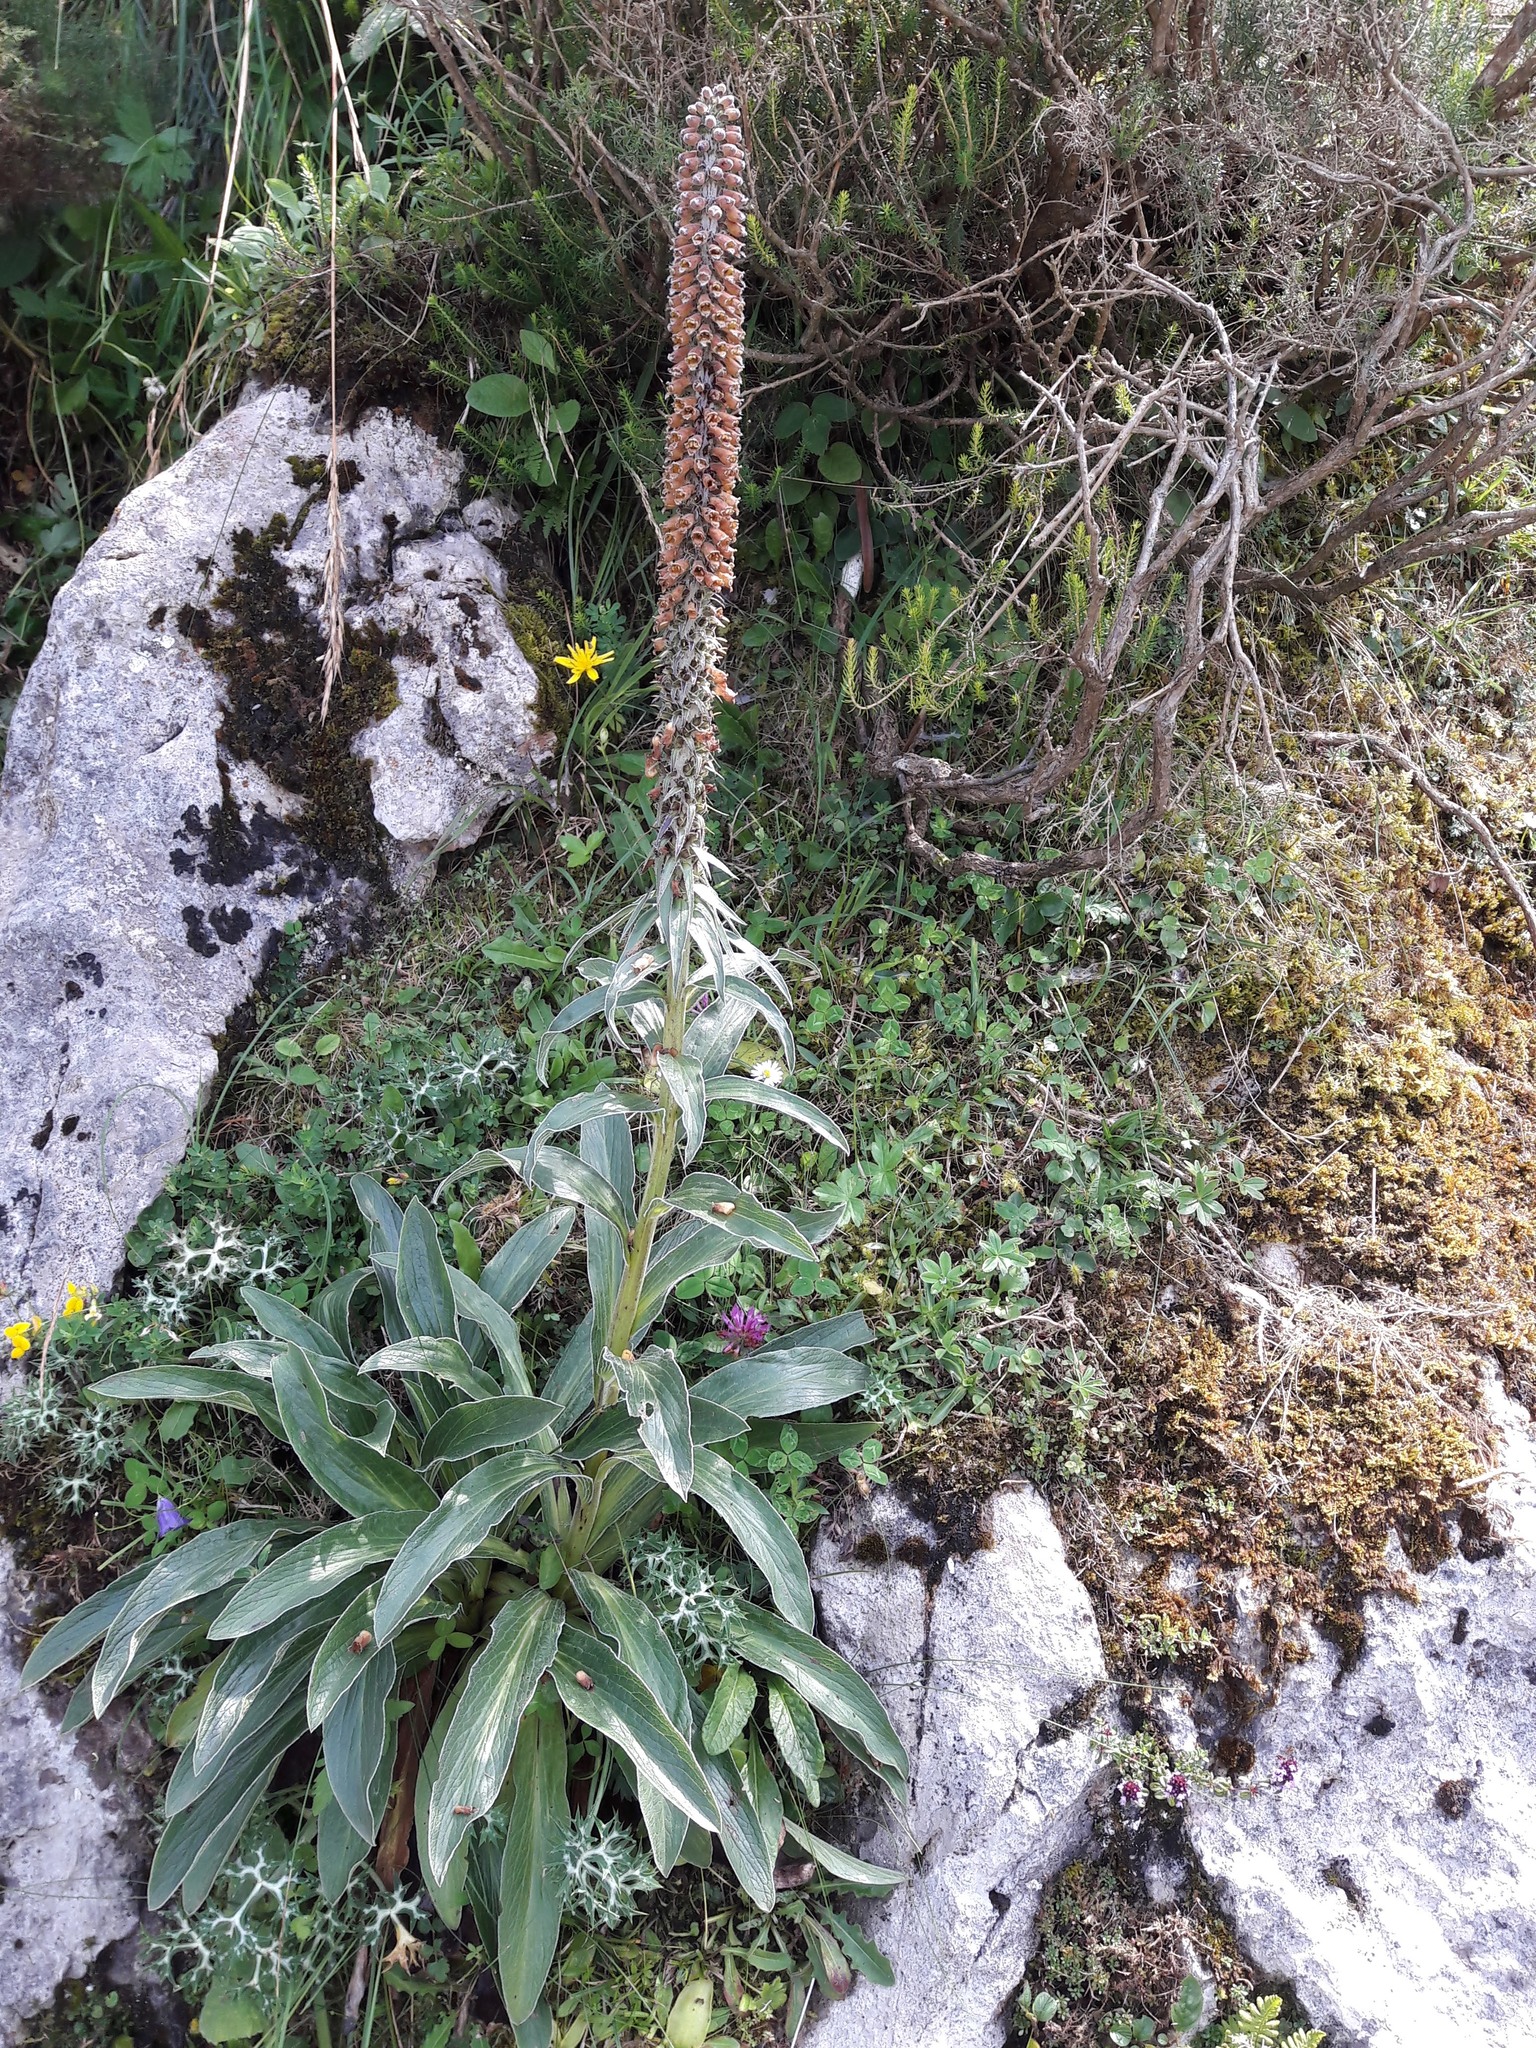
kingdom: Plantae
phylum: Tracheophyta
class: Magnoliopsida
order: Lamiales
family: Plantaginaceae
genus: Digitalis
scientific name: Digitalis parviflora
